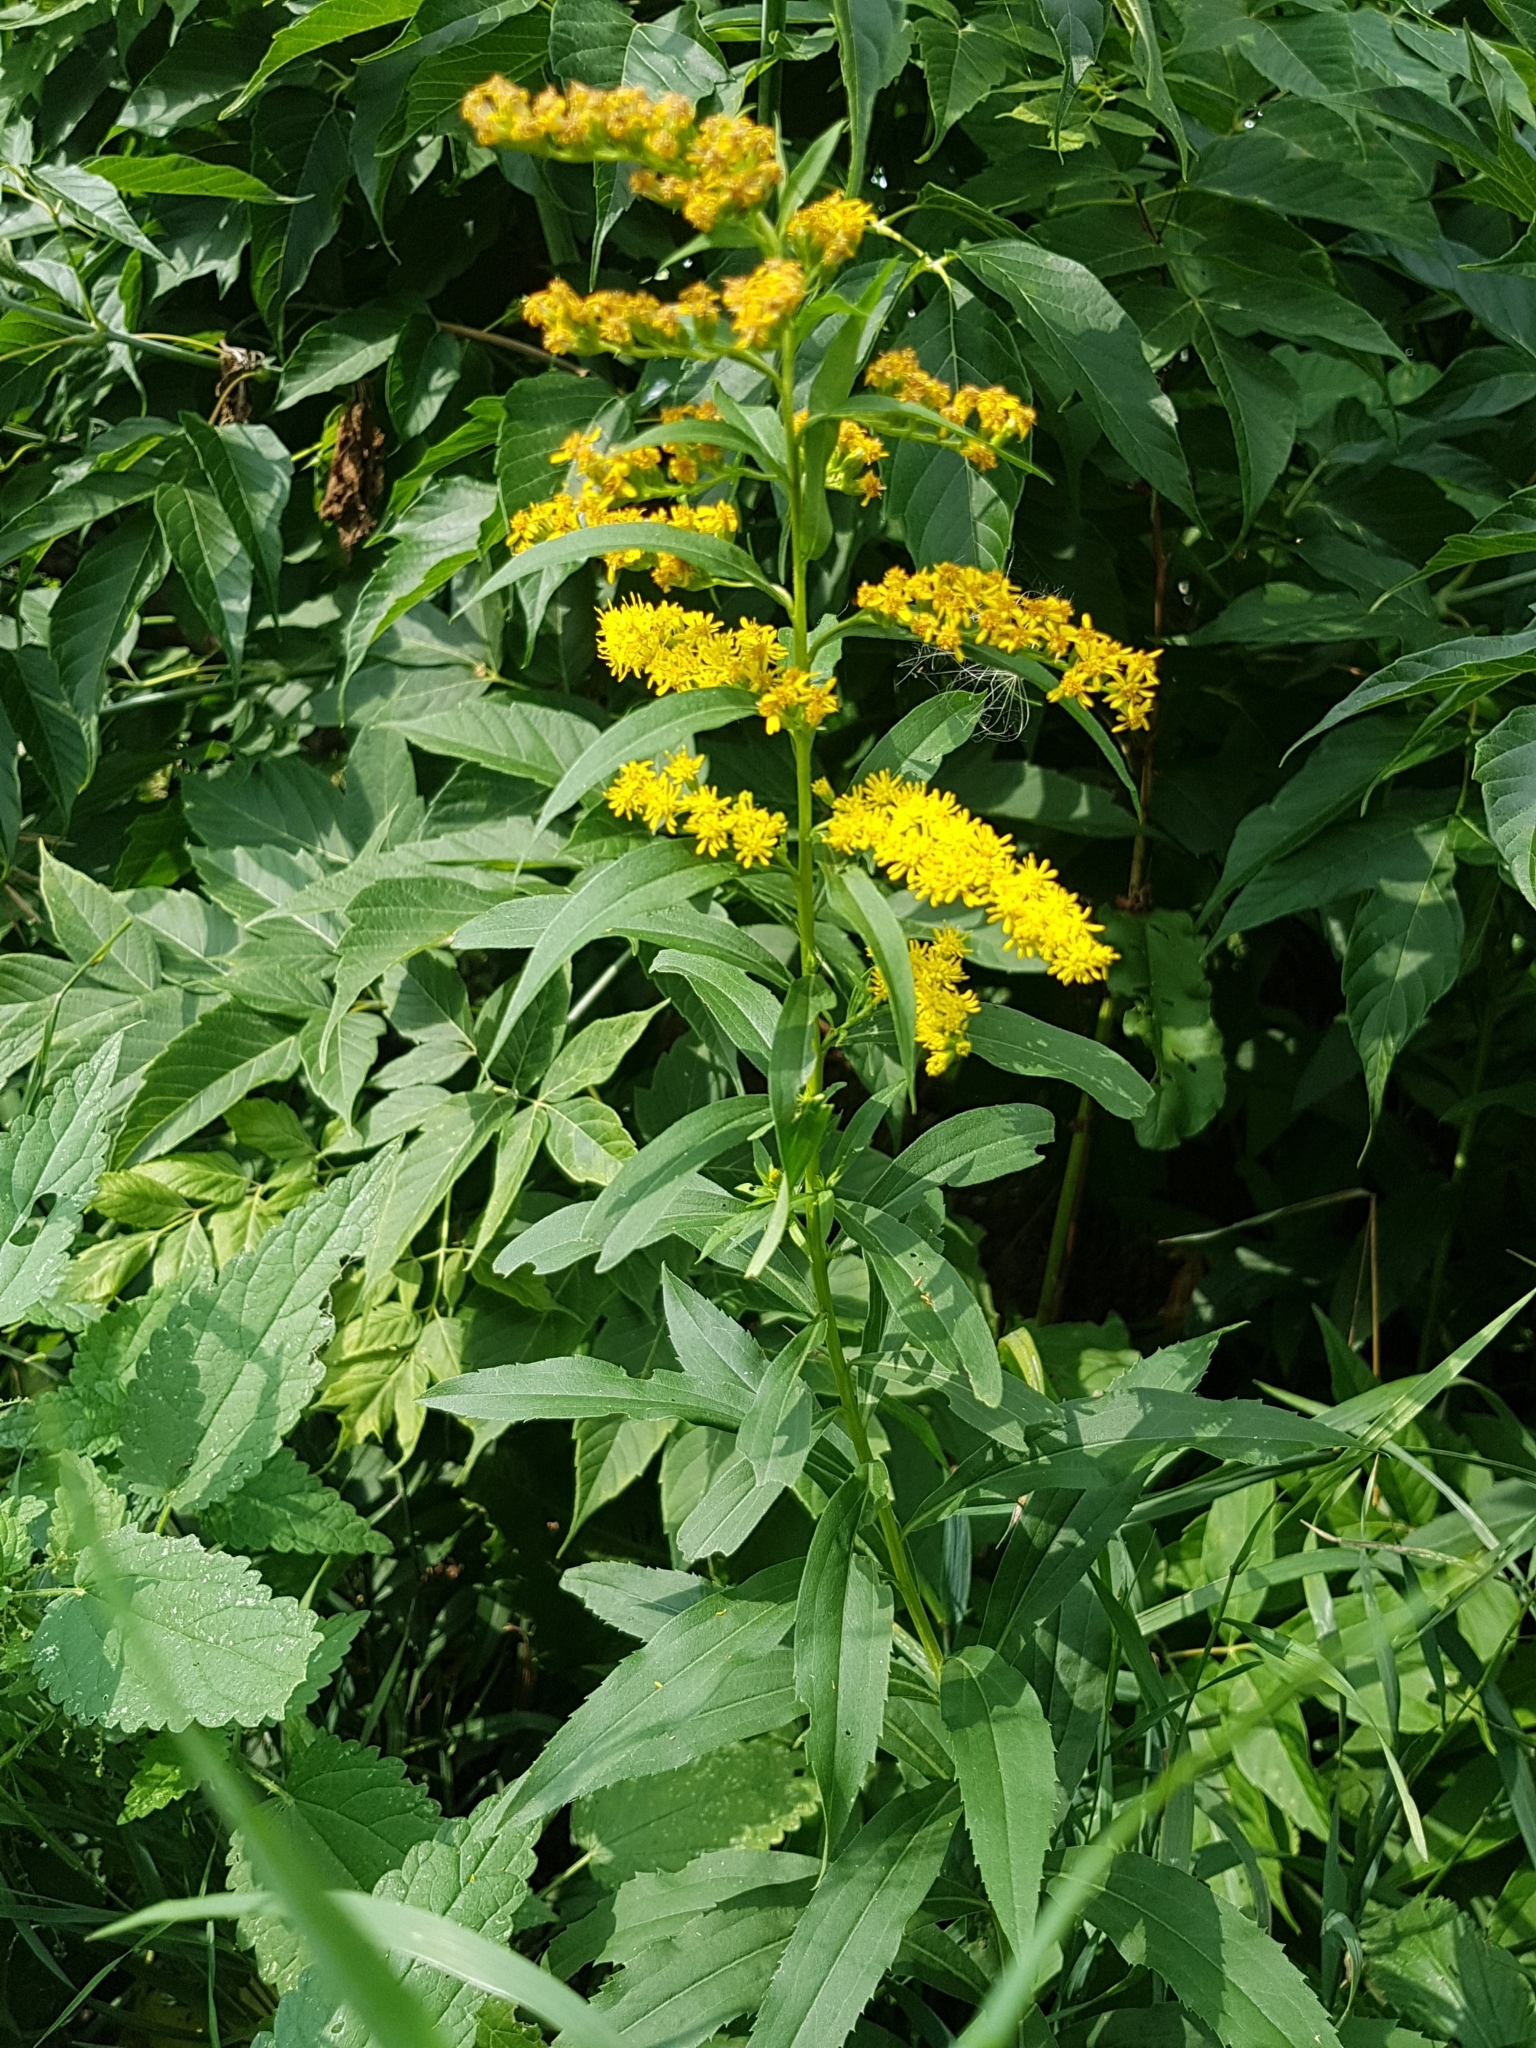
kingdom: Plantae
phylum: Tracheophyta
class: Magnoliopsida
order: Asterales
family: Asteraceae
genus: Solidago
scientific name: Solidago canadensis
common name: Canada goldenrod
